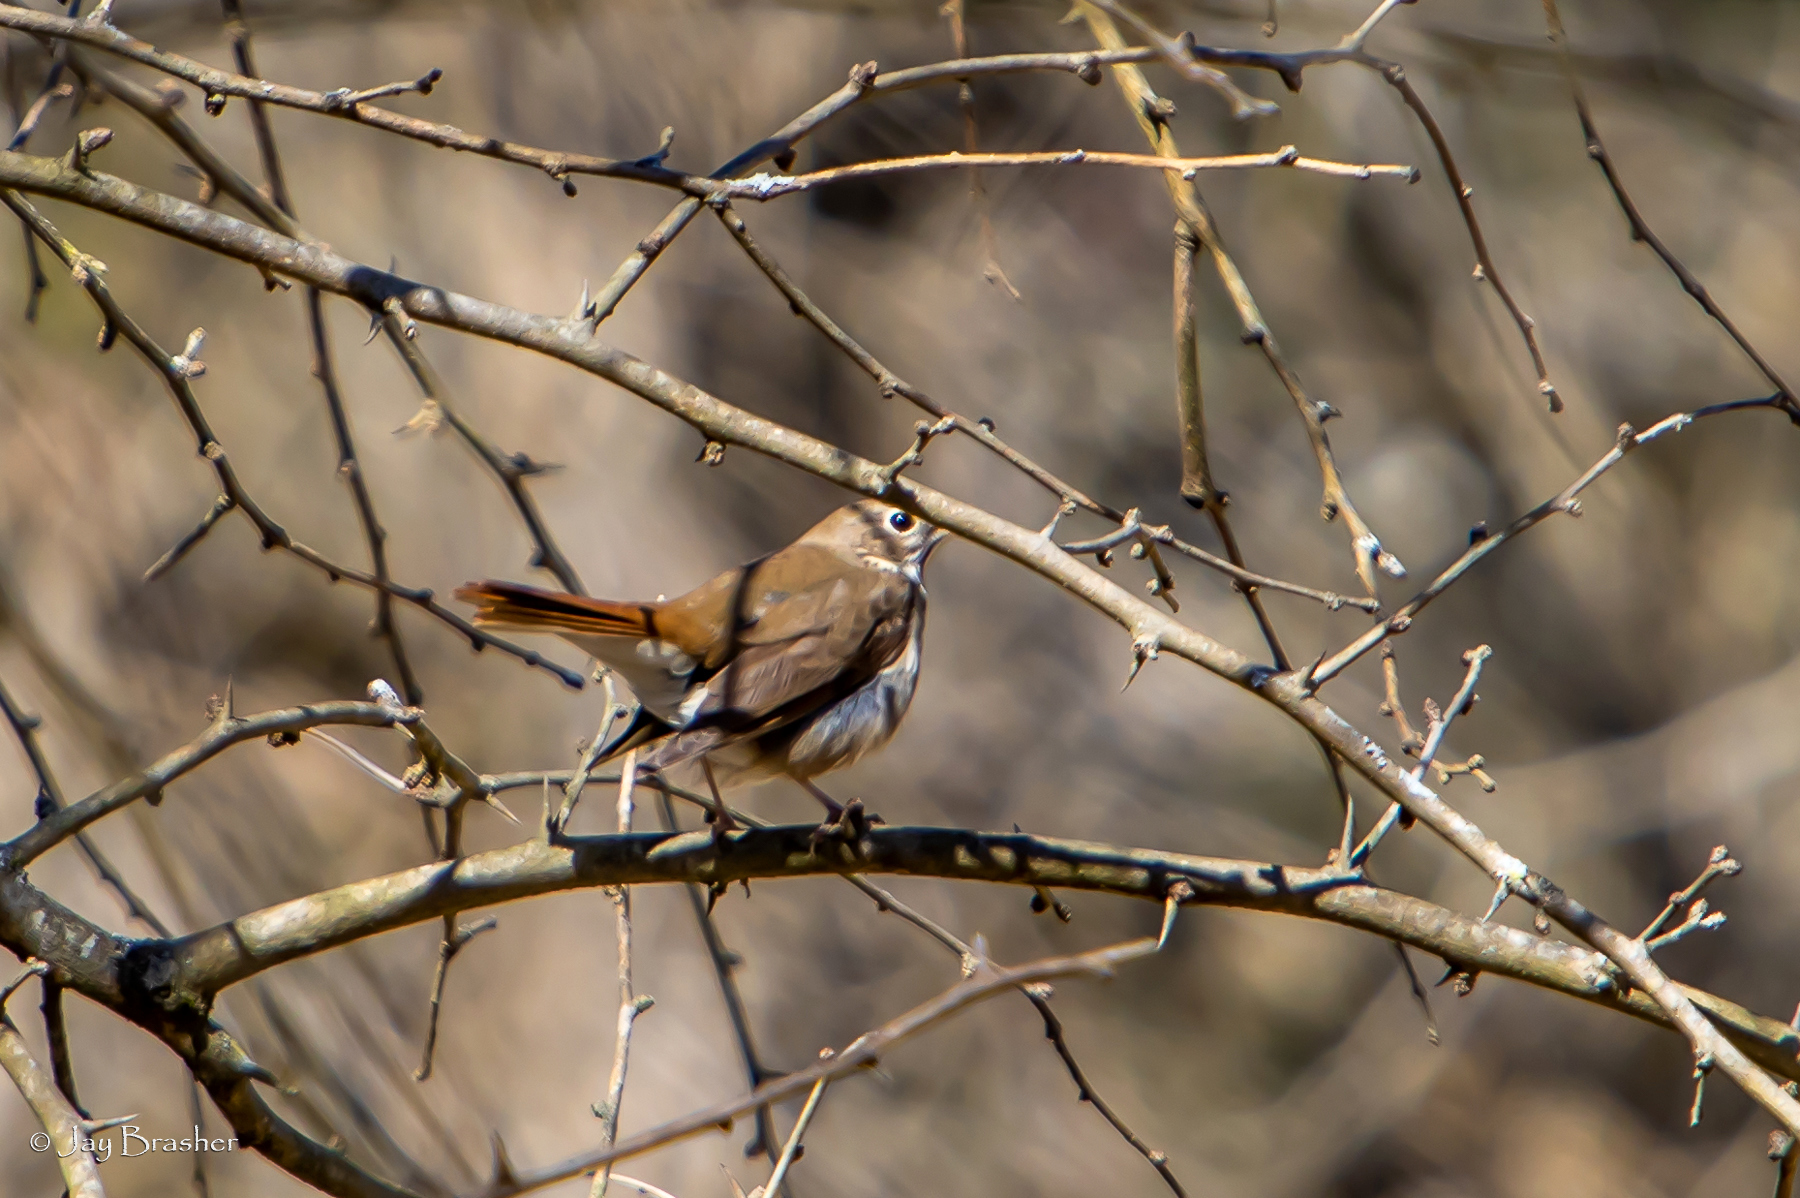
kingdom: Animalia
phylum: Chordata
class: Aves
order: Passeriformes
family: Turdidae
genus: Catharus
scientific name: Catharus guttatus
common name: Hermit thrush
